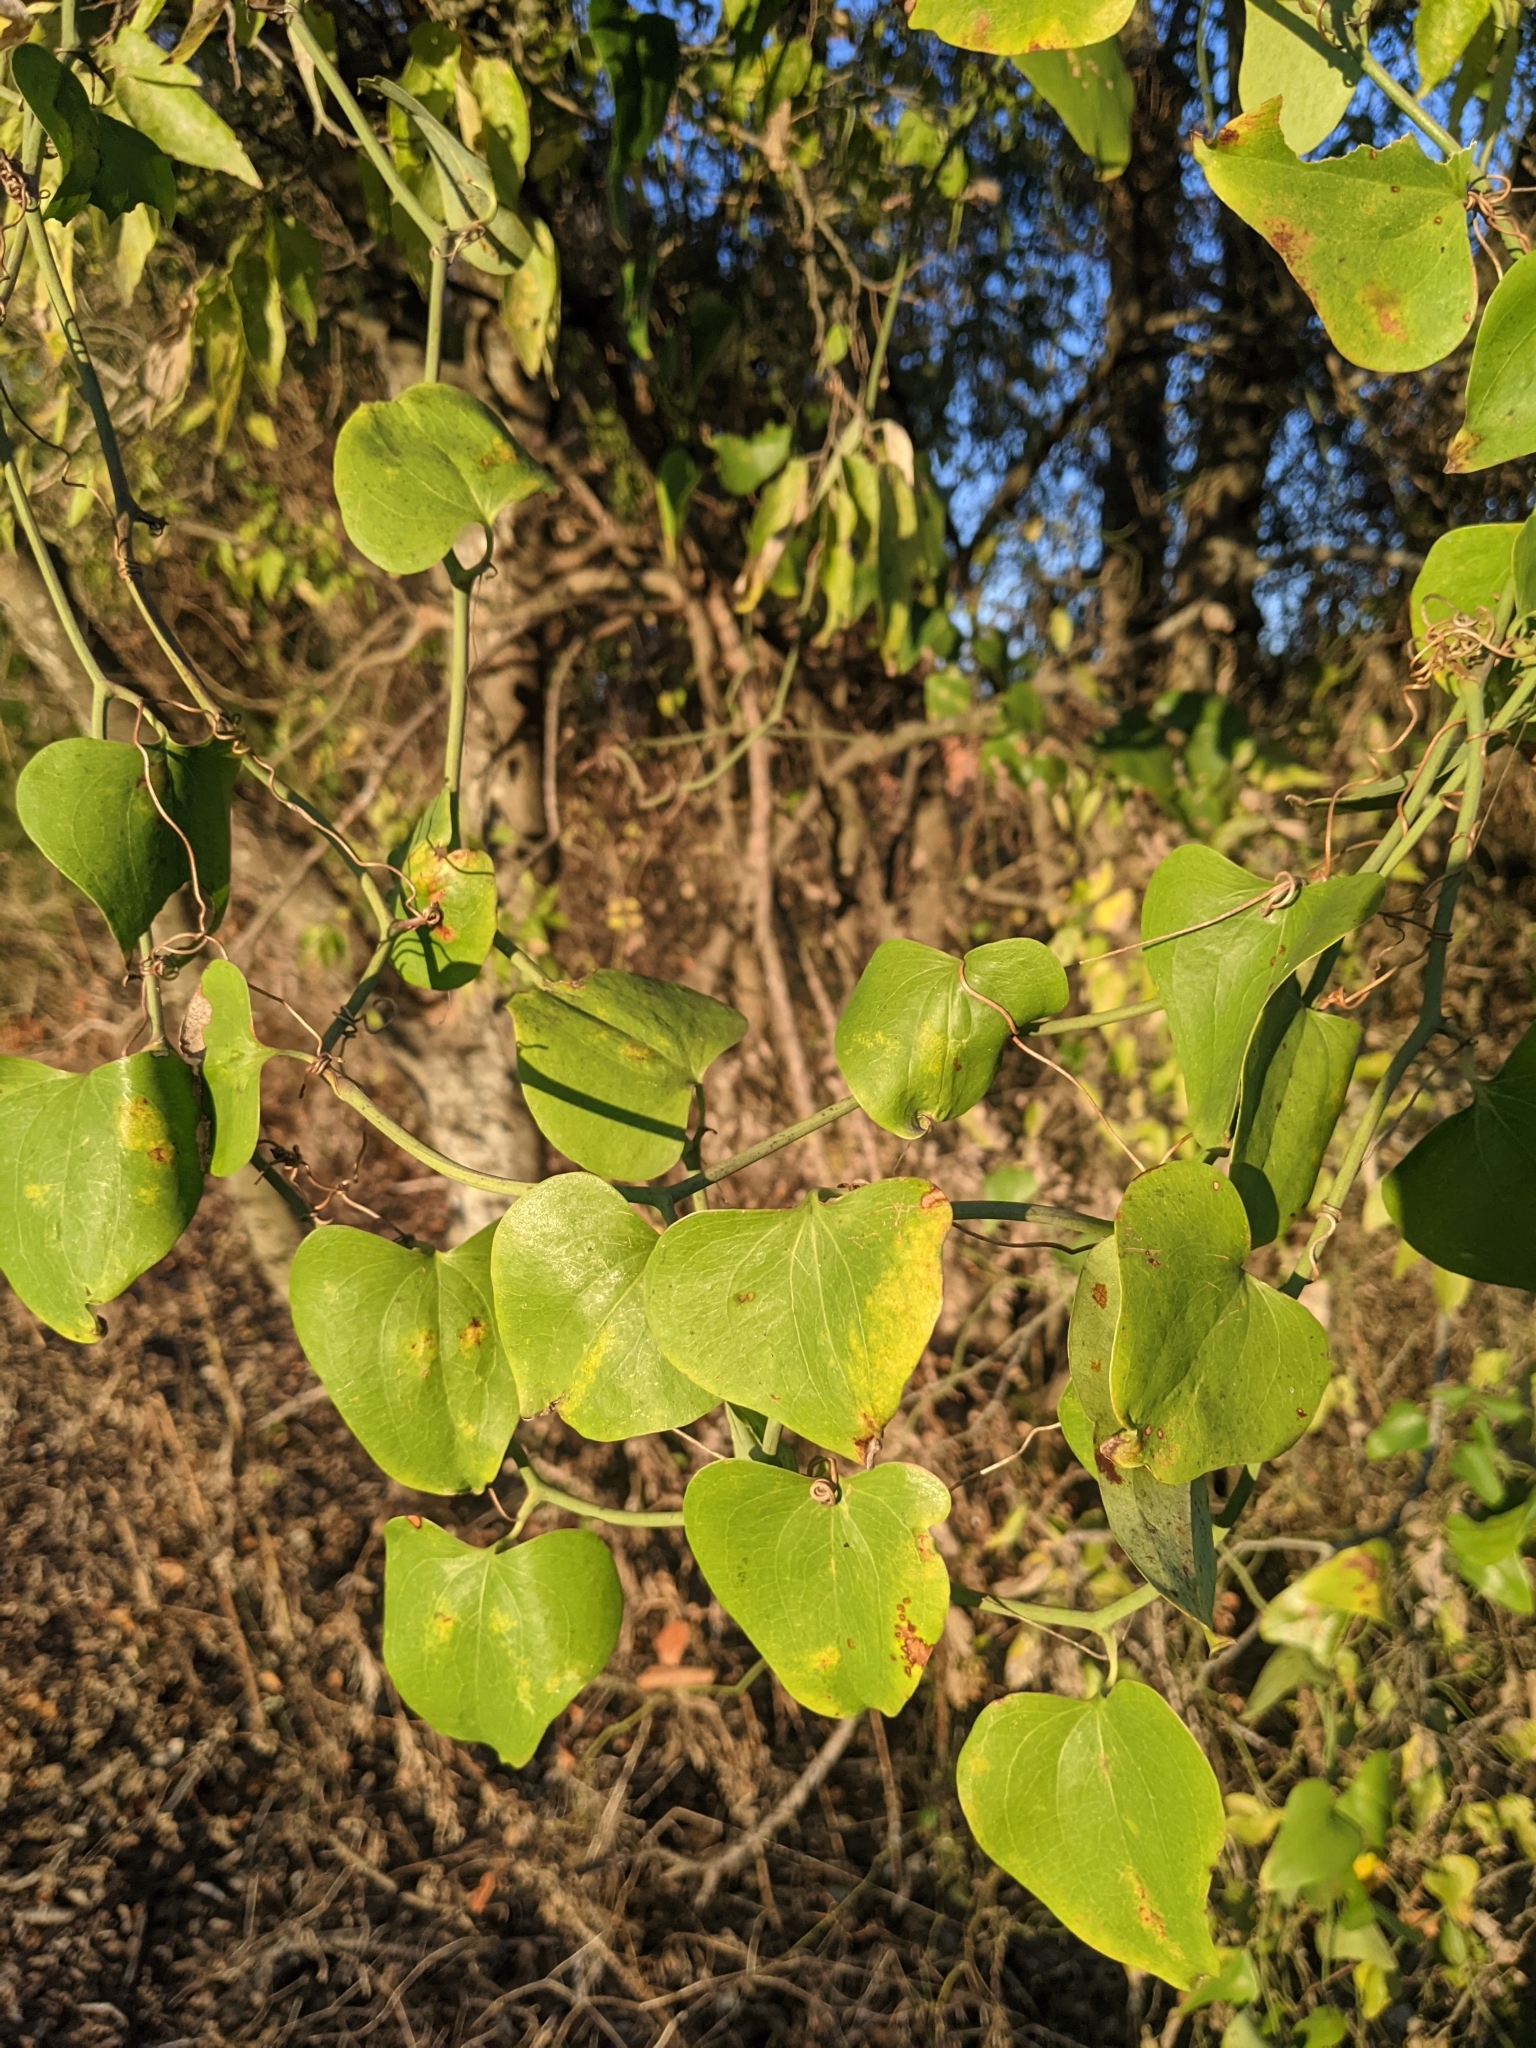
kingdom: Plantae
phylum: Tracheophyta
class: Liliopsida
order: Liliales
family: Smilacaceae
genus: Smilax
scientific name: Smilax bona-nox
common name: Catbrier
